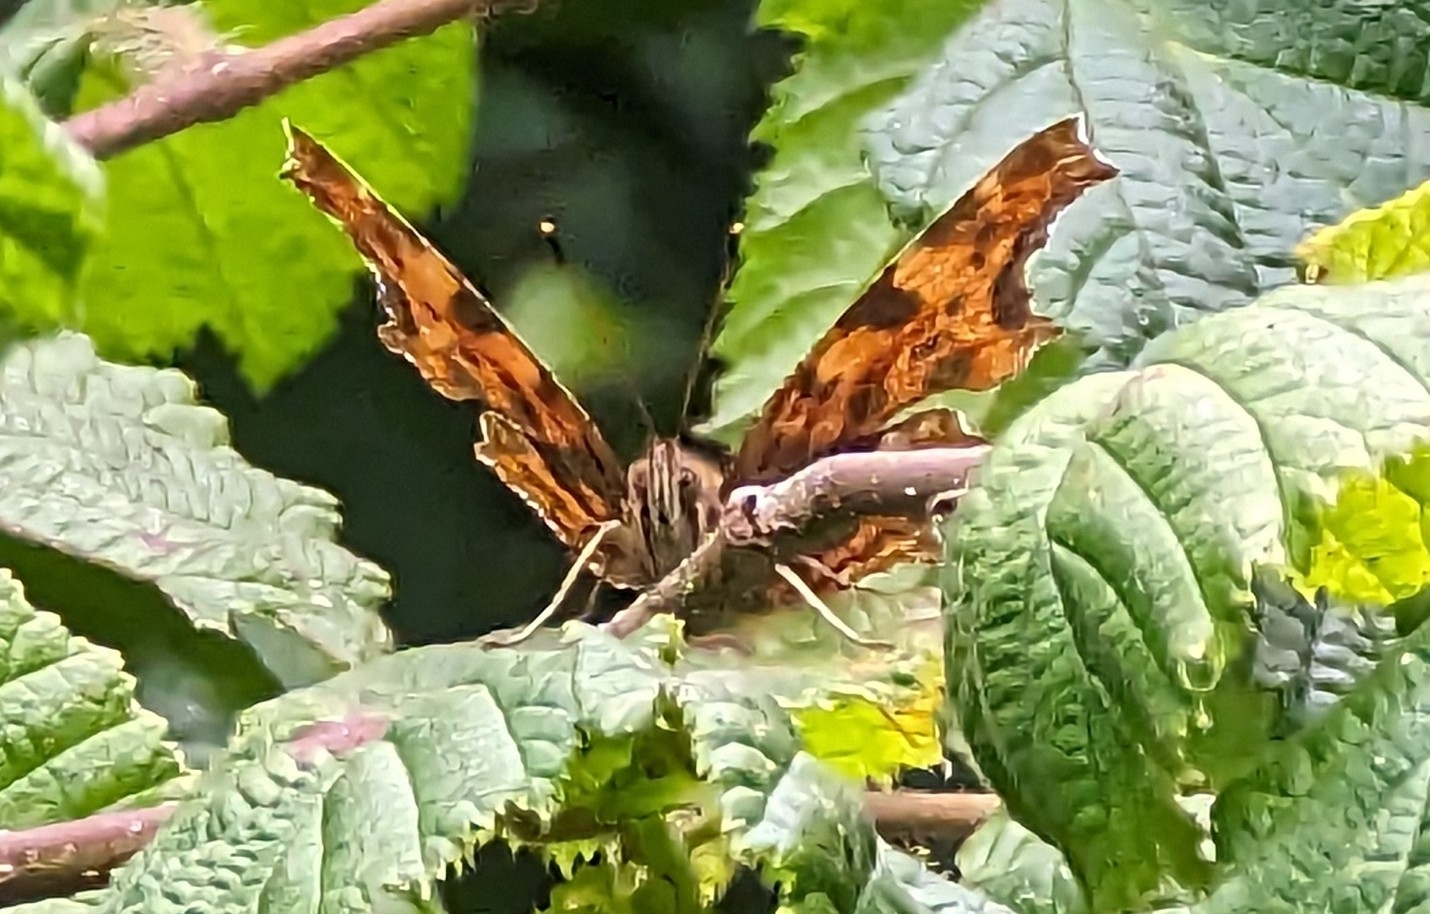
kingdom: Animalia
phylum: Arthropoda
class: Insecta
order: Lepidoptera
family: Nymphalidae
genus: Polygonia
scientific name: Polygonia c-album
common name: Comma
